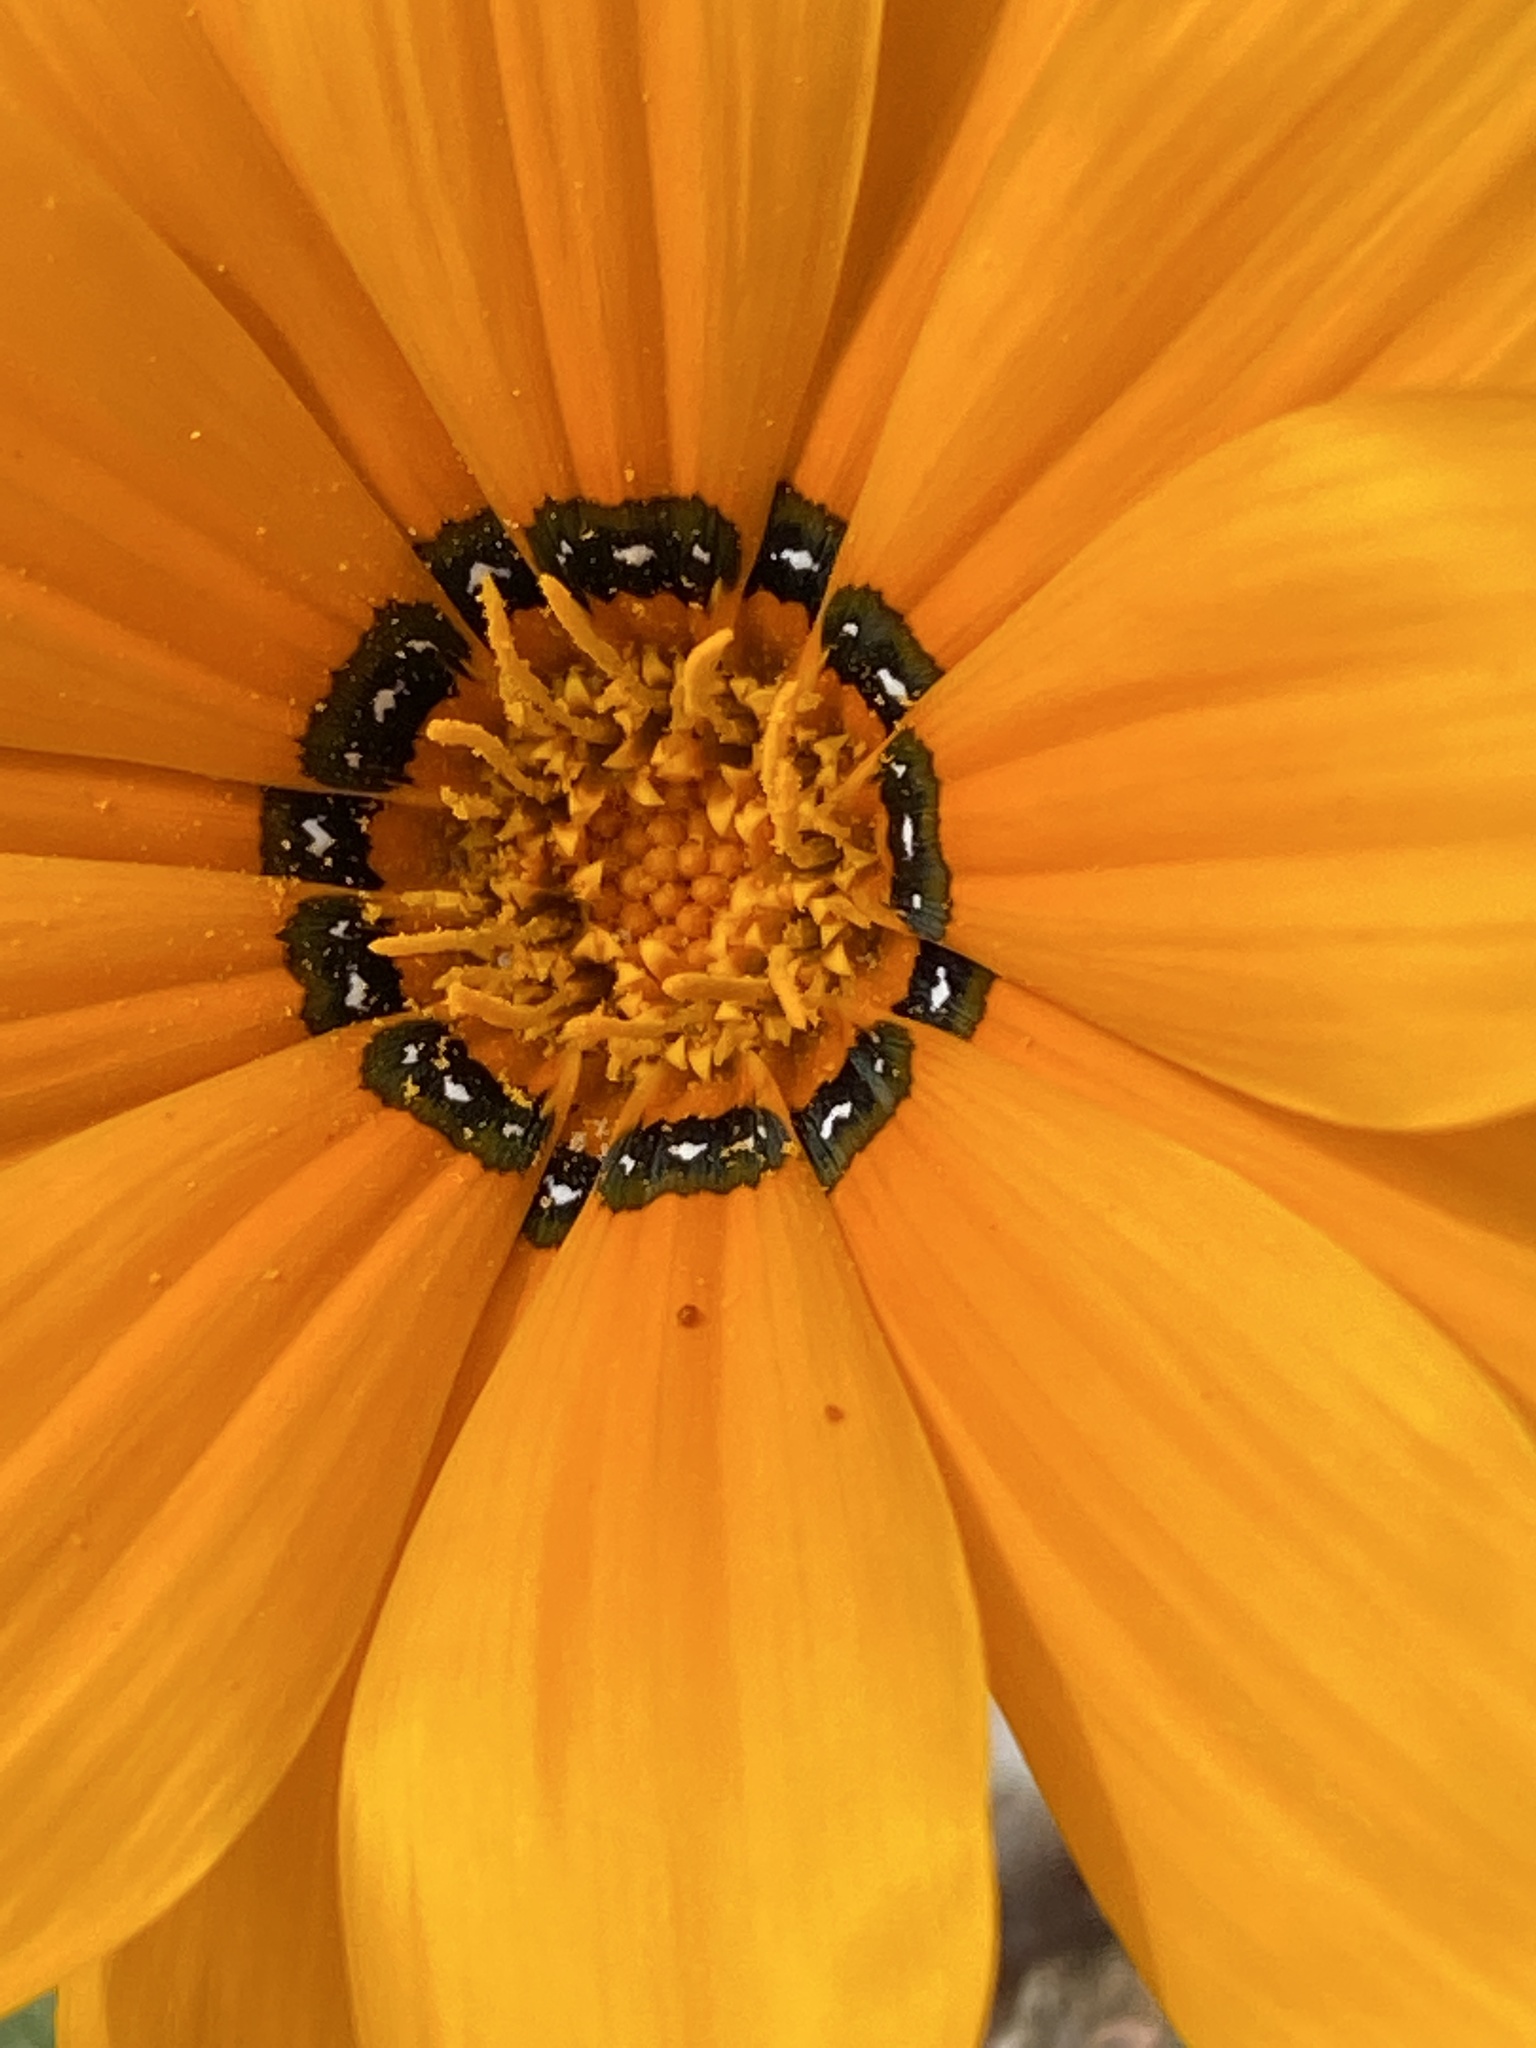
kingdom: Plantae
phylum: Tracheophyta
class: Magnoliopsida
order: Asterales
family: Asteraceae
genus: Gazania
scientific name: Gazania krebsiana
